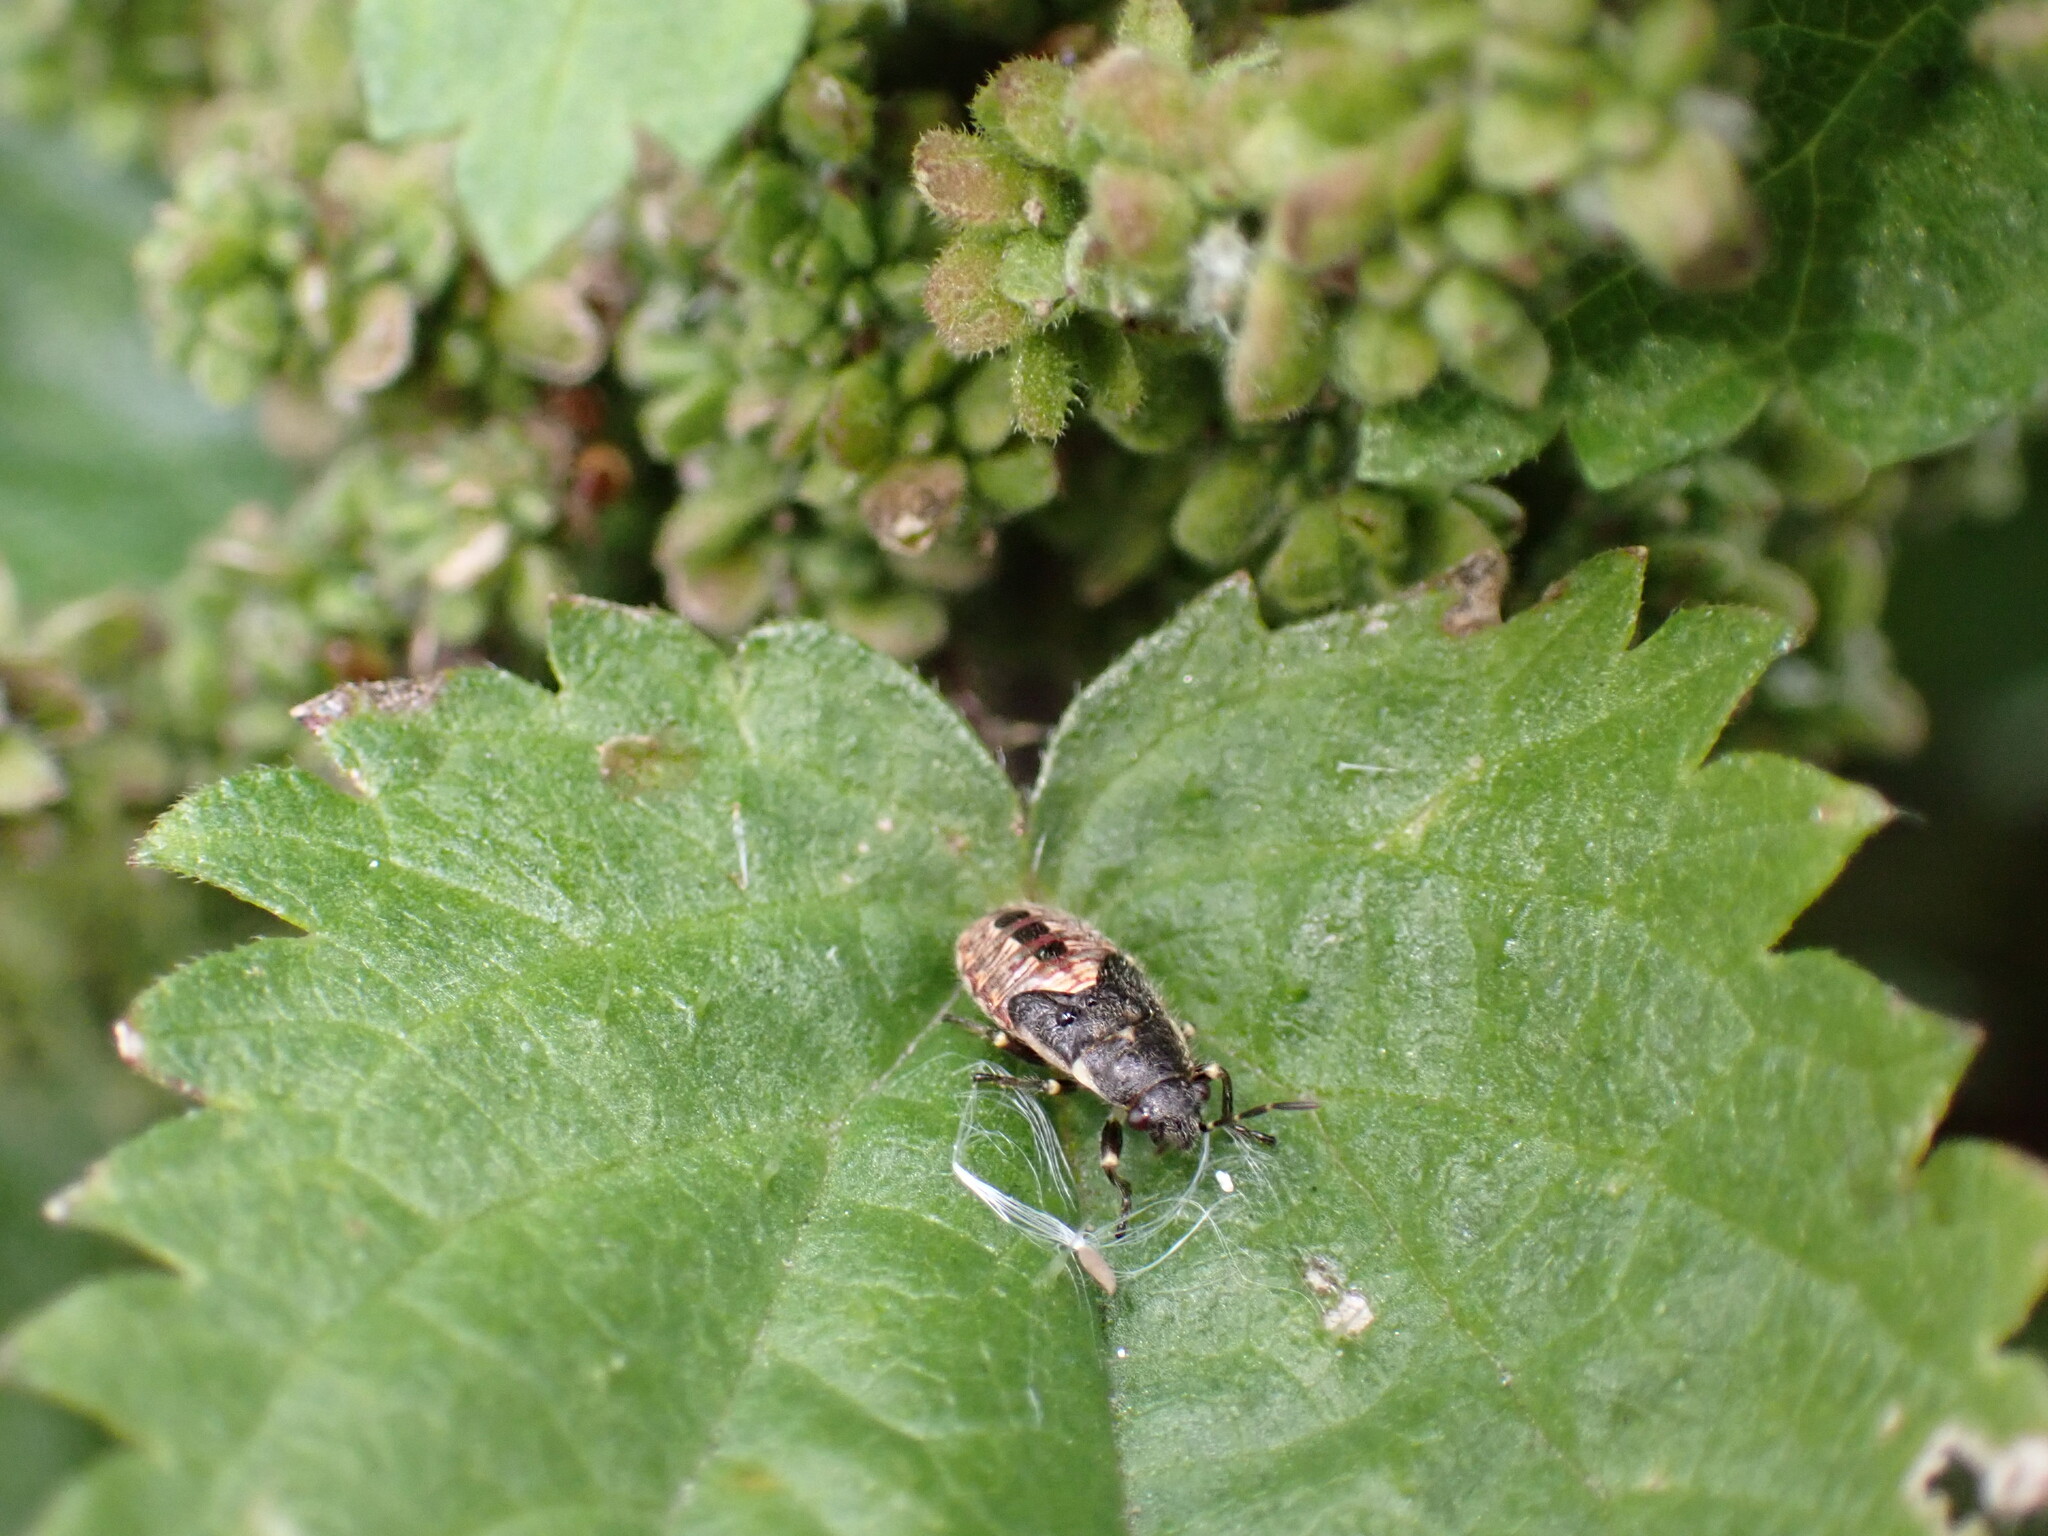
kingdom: Animalia
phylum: Arthropoda
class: Insecta
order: Hemiptera
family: Heterogastridae
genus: Heterogaster
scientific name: Heterogaster urticae
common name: Seed bug
